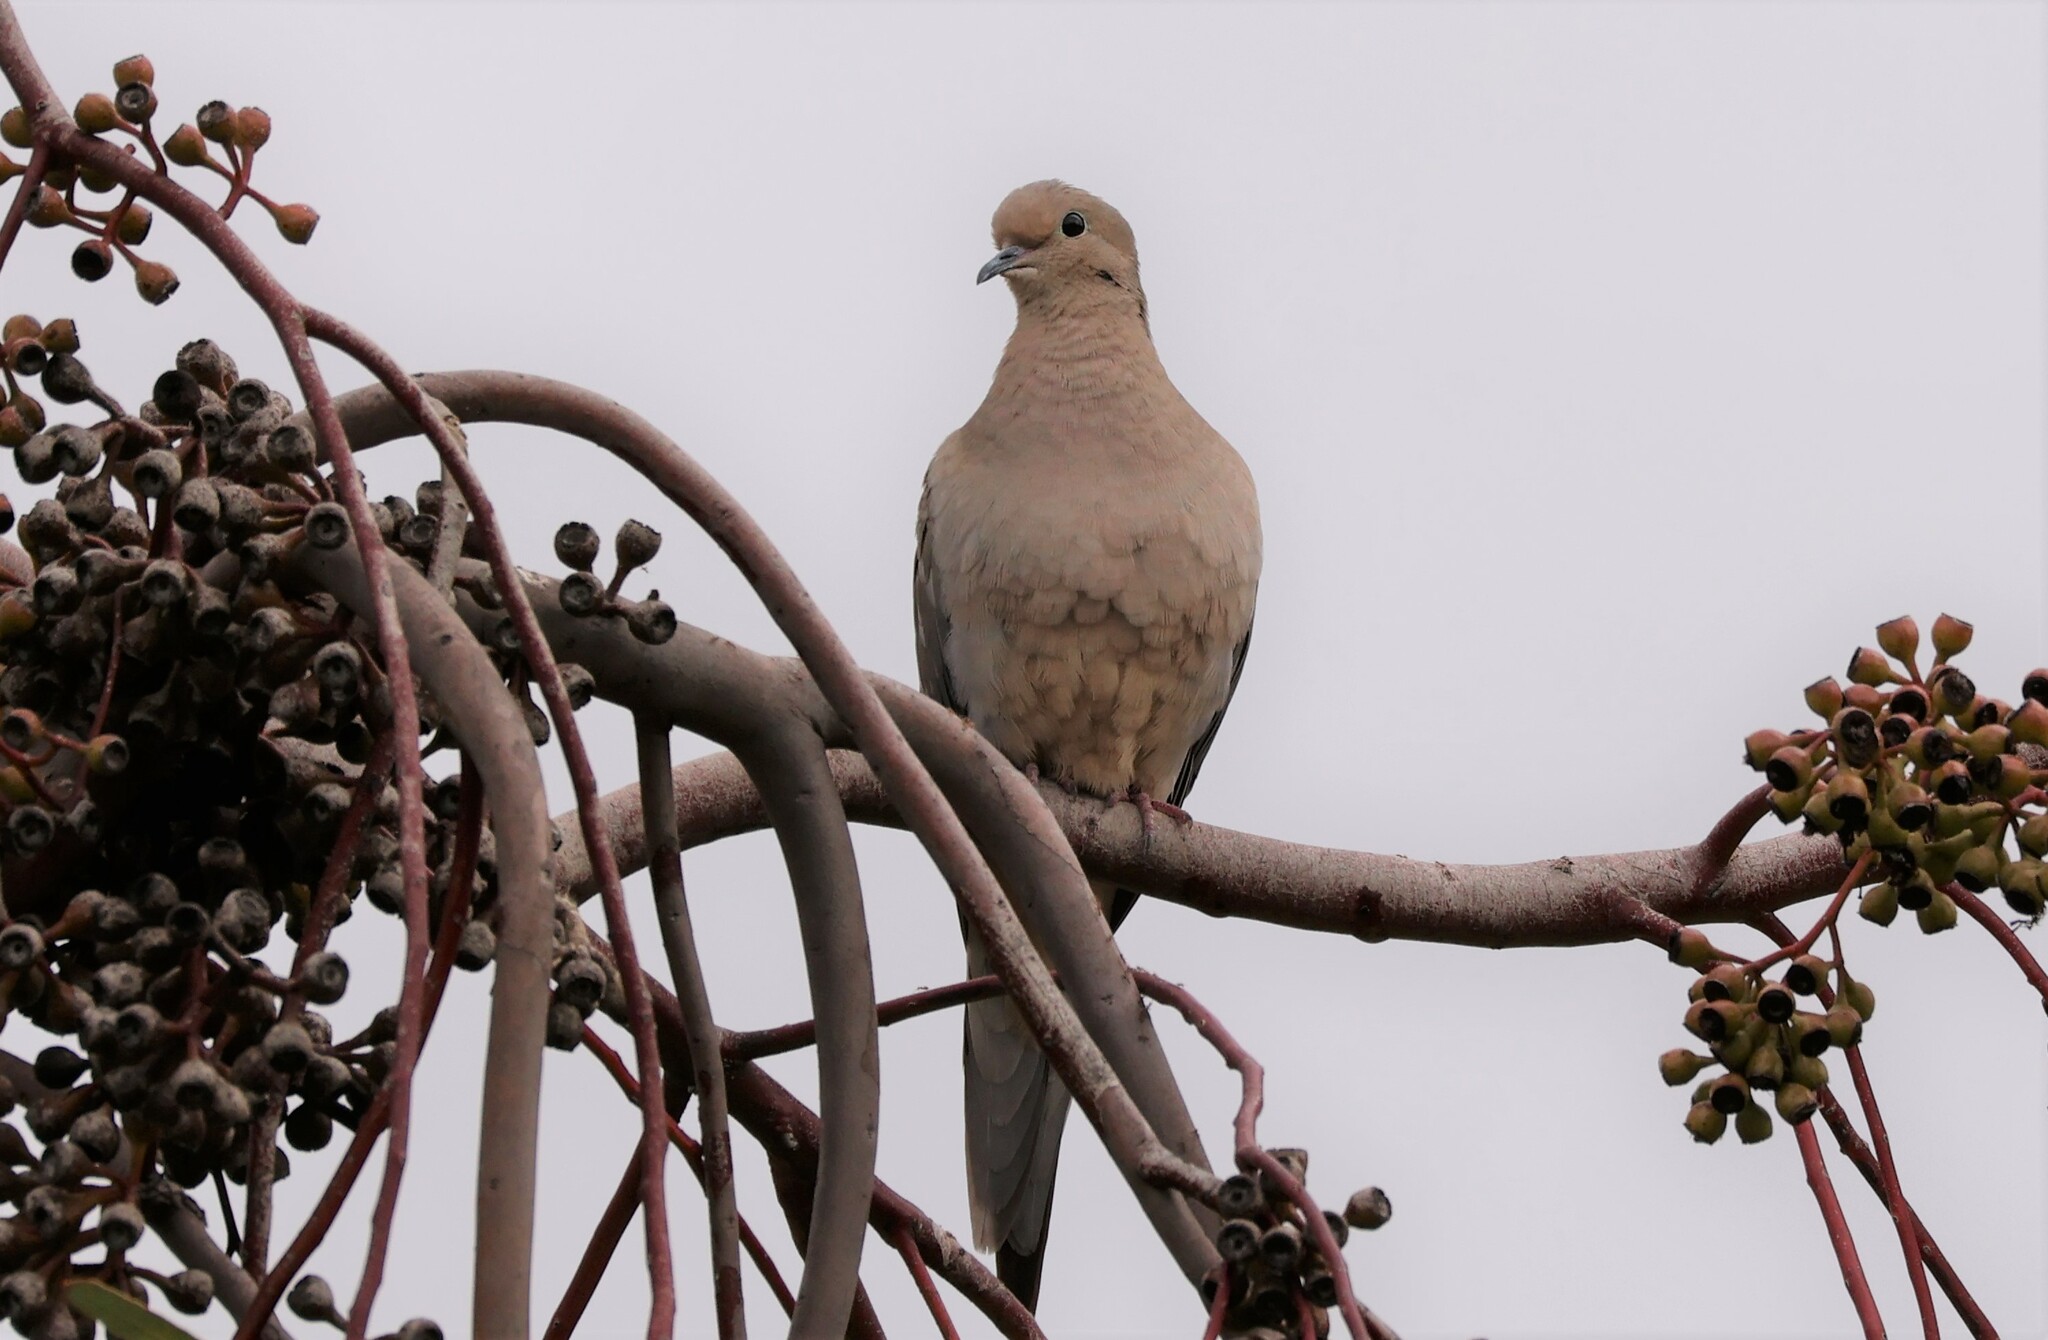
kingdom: Animalia
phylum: Chordata
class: Aves
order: Columbiformes
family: Columbidae
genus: Zenaida
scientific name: Zenaida macroura
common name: Mourning dove
